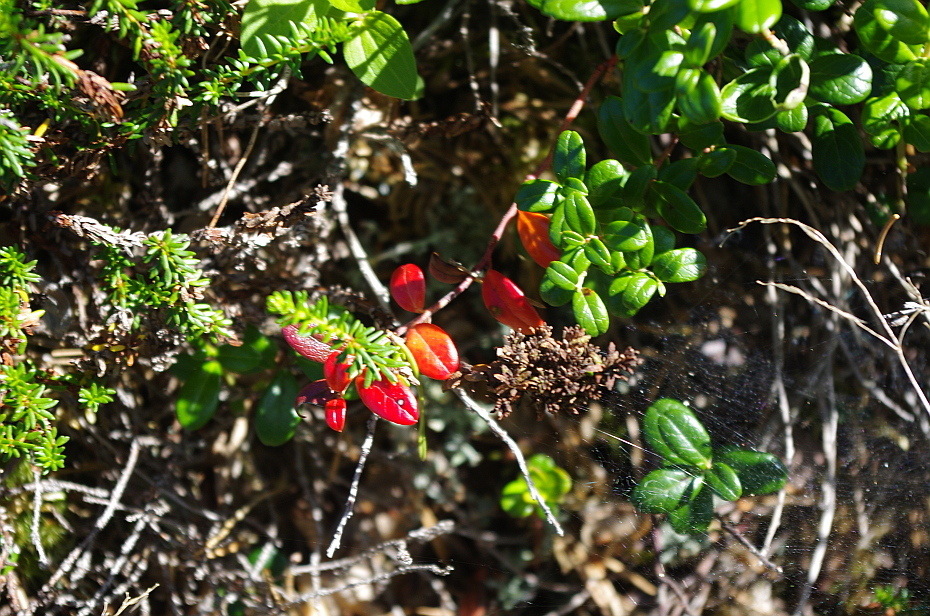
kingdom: Plantae
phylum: Tracheophyta
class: Magnoliopsida
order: Ericales
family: Ericaceae
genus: Vaccinium
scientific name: Vaccinium vitis-idaea
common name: Cowberry
